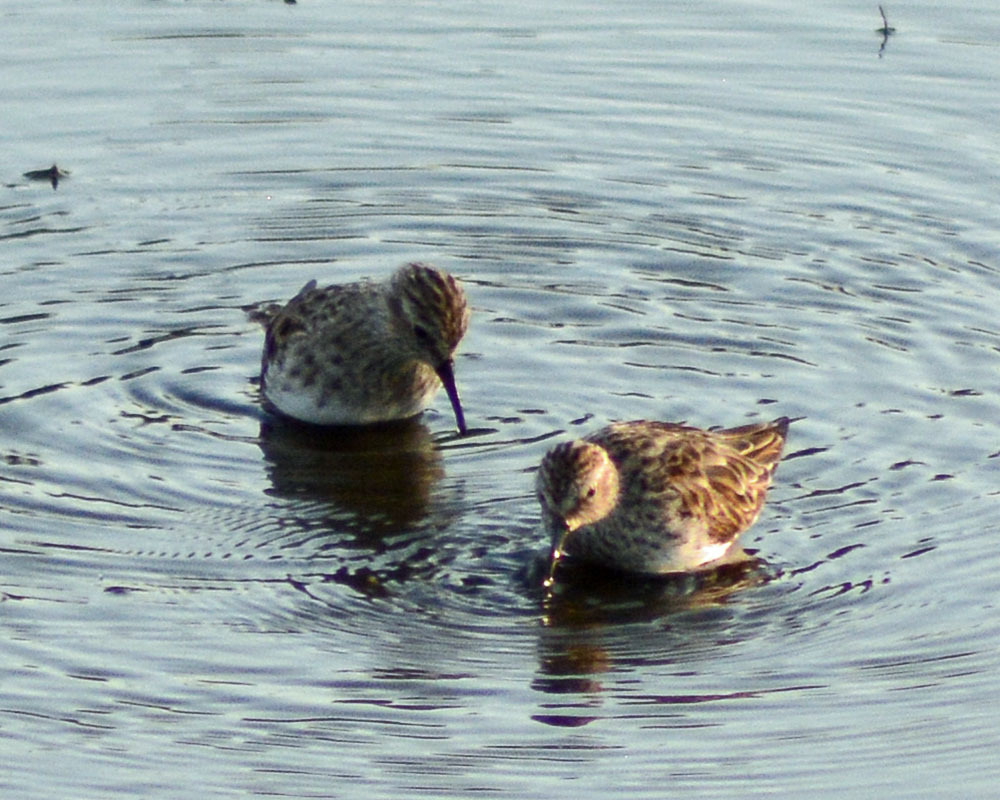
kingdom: Animalia
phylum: Chordata
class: Aves
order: Charadriiformes
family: Scolopacidae
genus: Calidris
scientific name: Calidris minutilla
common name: Least sandpiper
